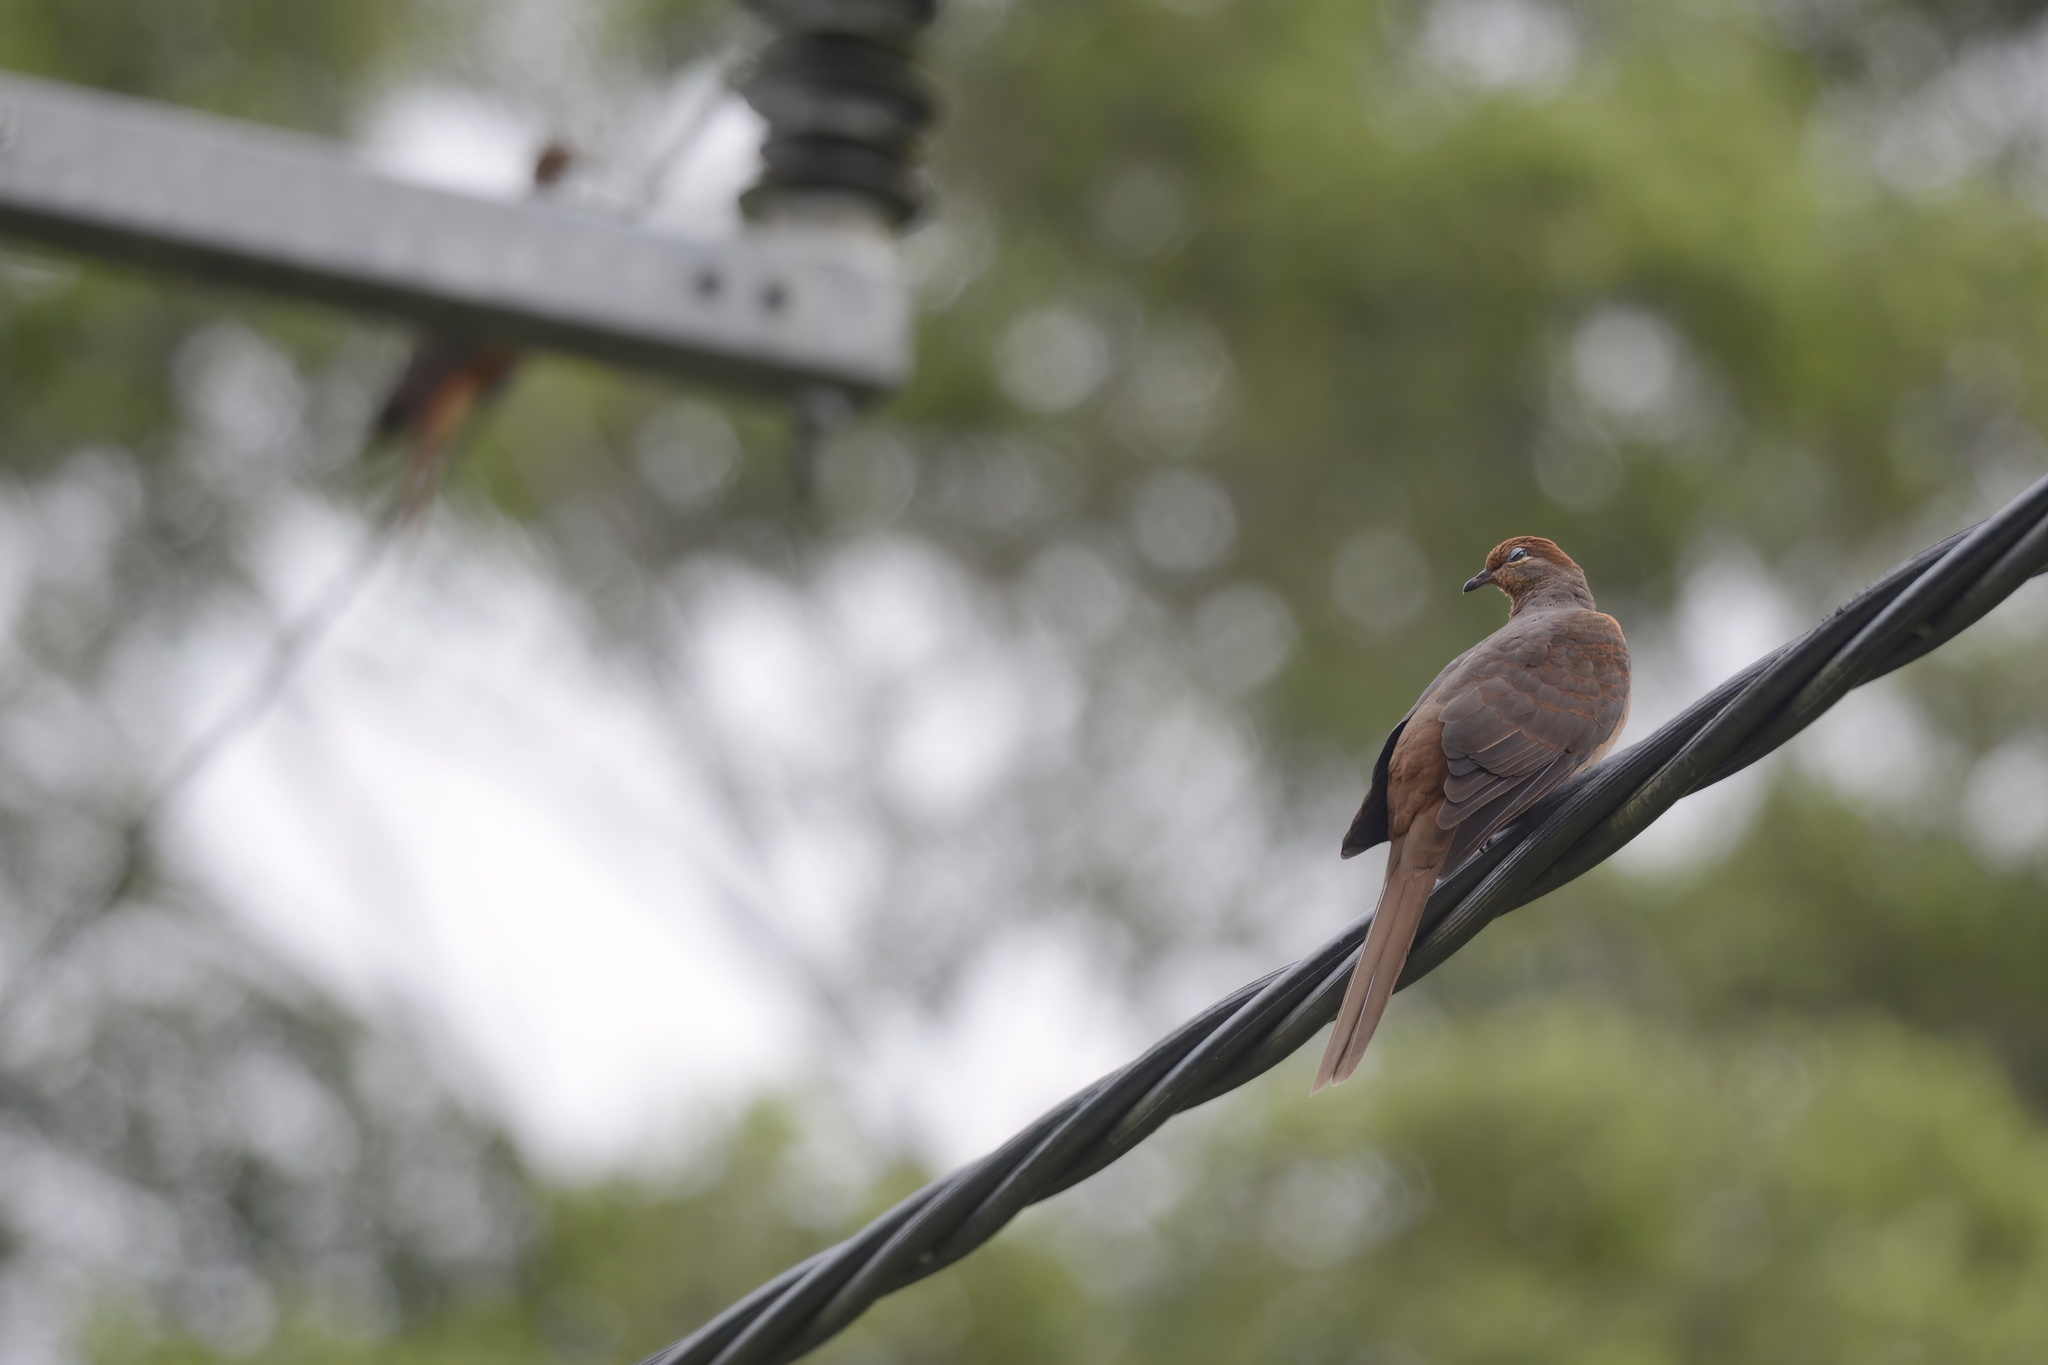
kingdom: Animalia
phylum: Chordata
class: Aves
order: Columbiformes
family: Columbidae
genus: Macropygia
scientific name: Macropygia phasianella
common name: Brown cuckoo-dove
